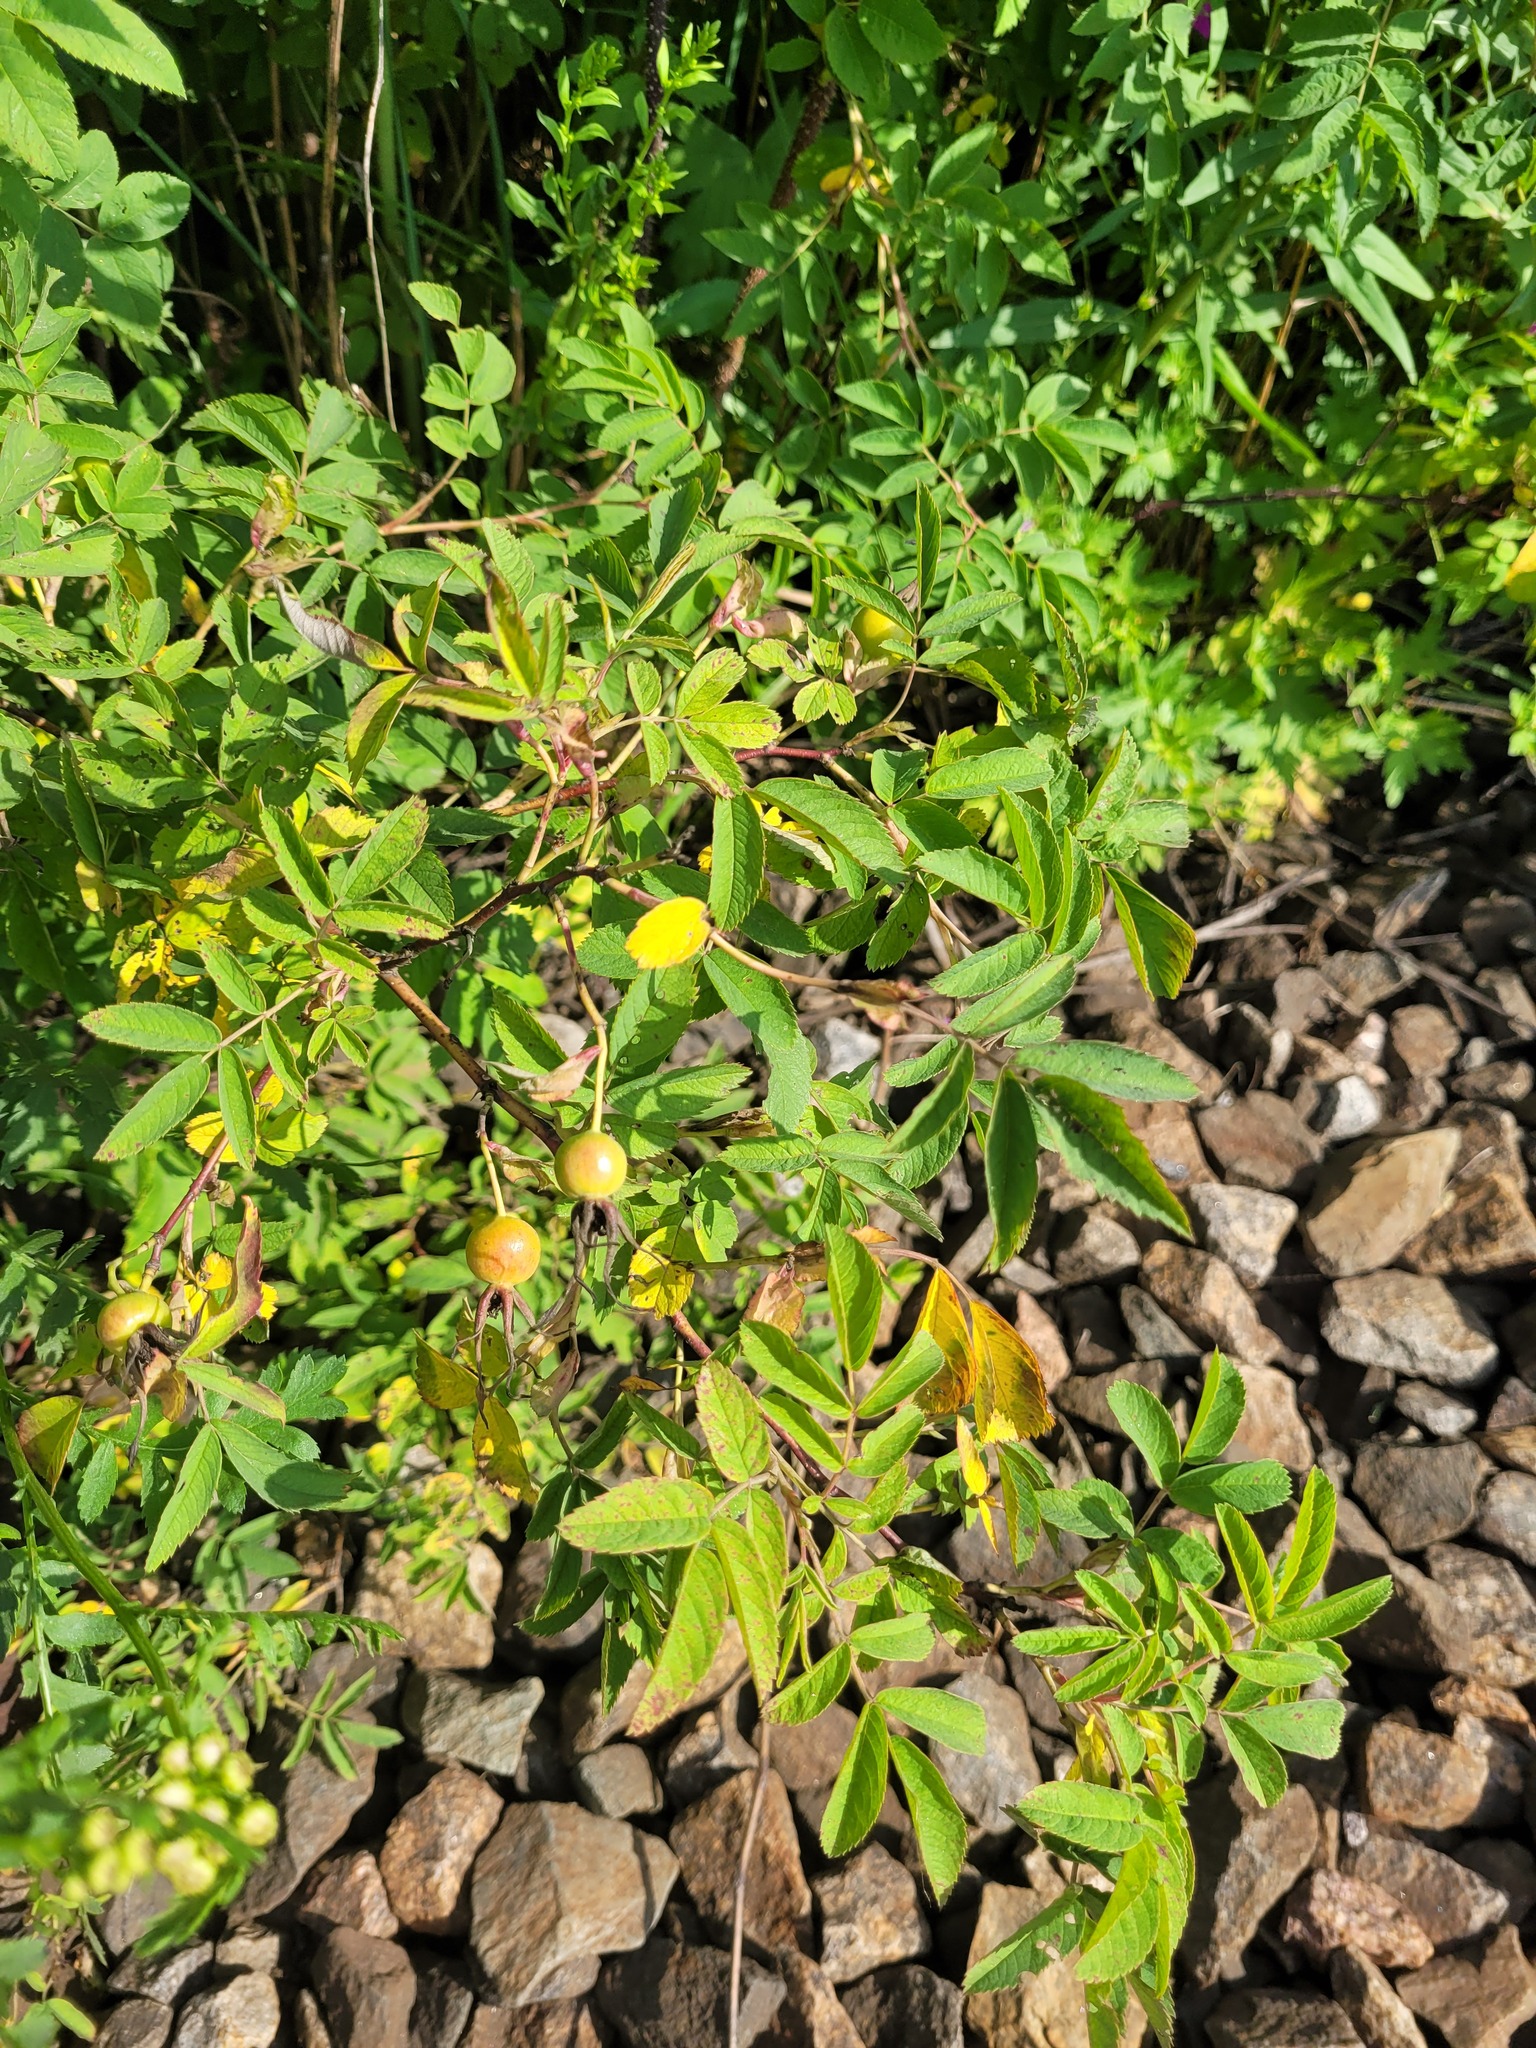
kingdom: Plantae
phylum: Tracheophyta
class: Magnoliopsida
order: Rosales
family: Rosaceae
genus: Rosa
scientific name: Rosa majalis
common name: Cinnamon rose
